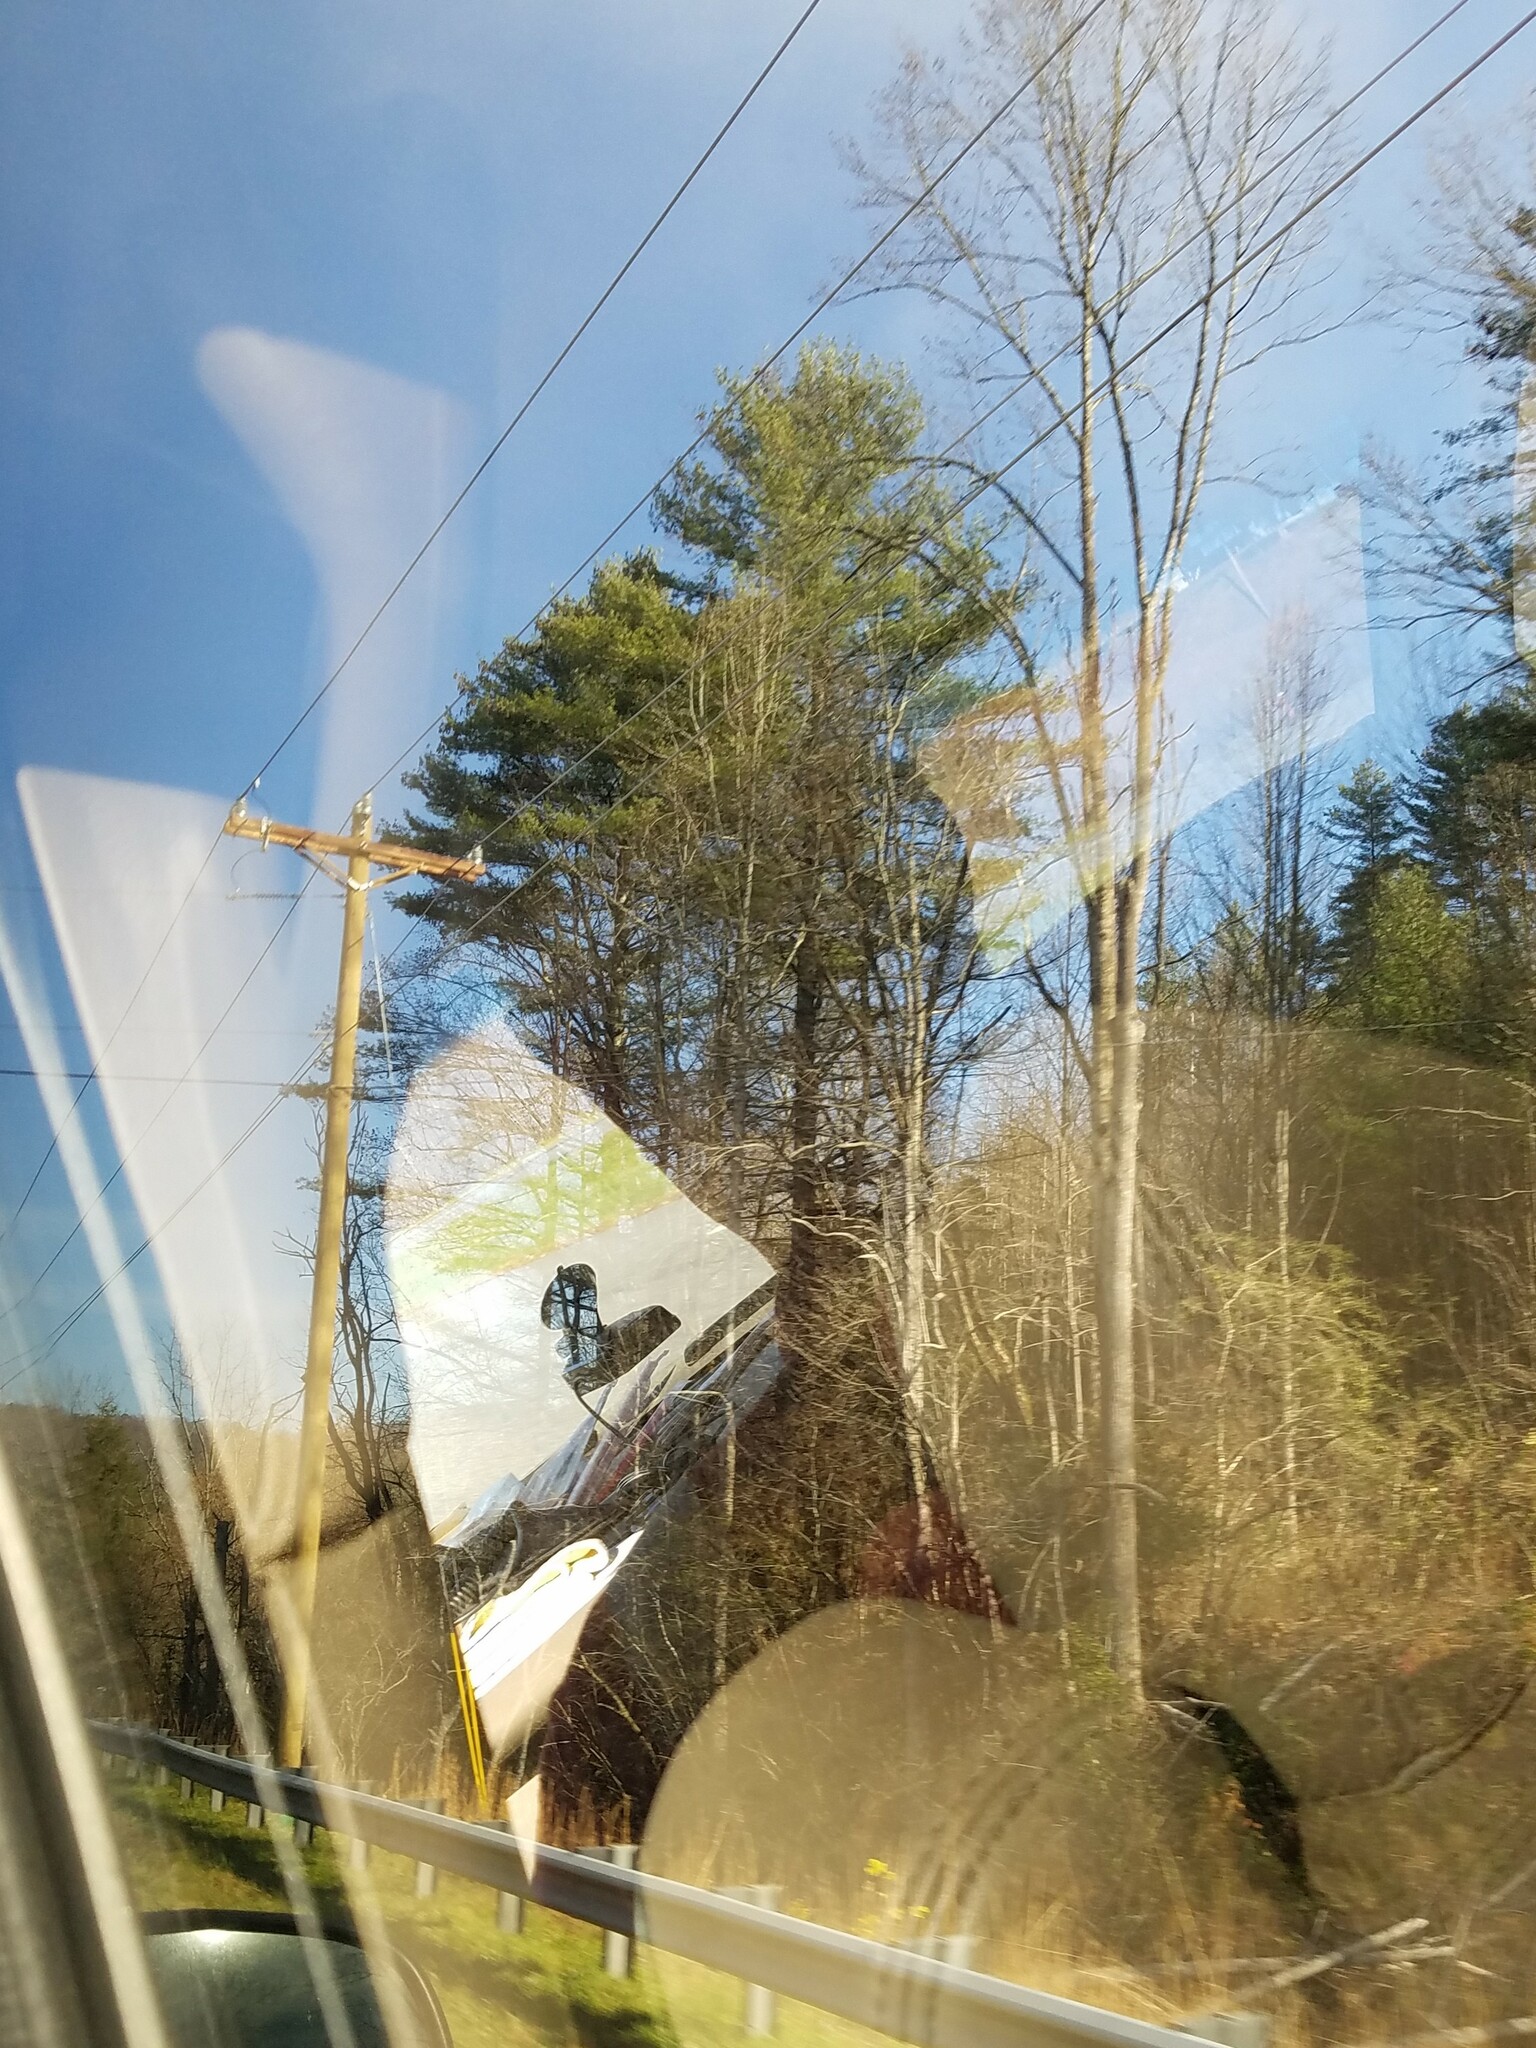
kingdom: Plantae
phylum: Tracheophyta
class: Pinopsida
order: Pinales
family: Pinaceae
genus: Pinus
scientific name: Pinus strobus
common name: Weymouth pine
